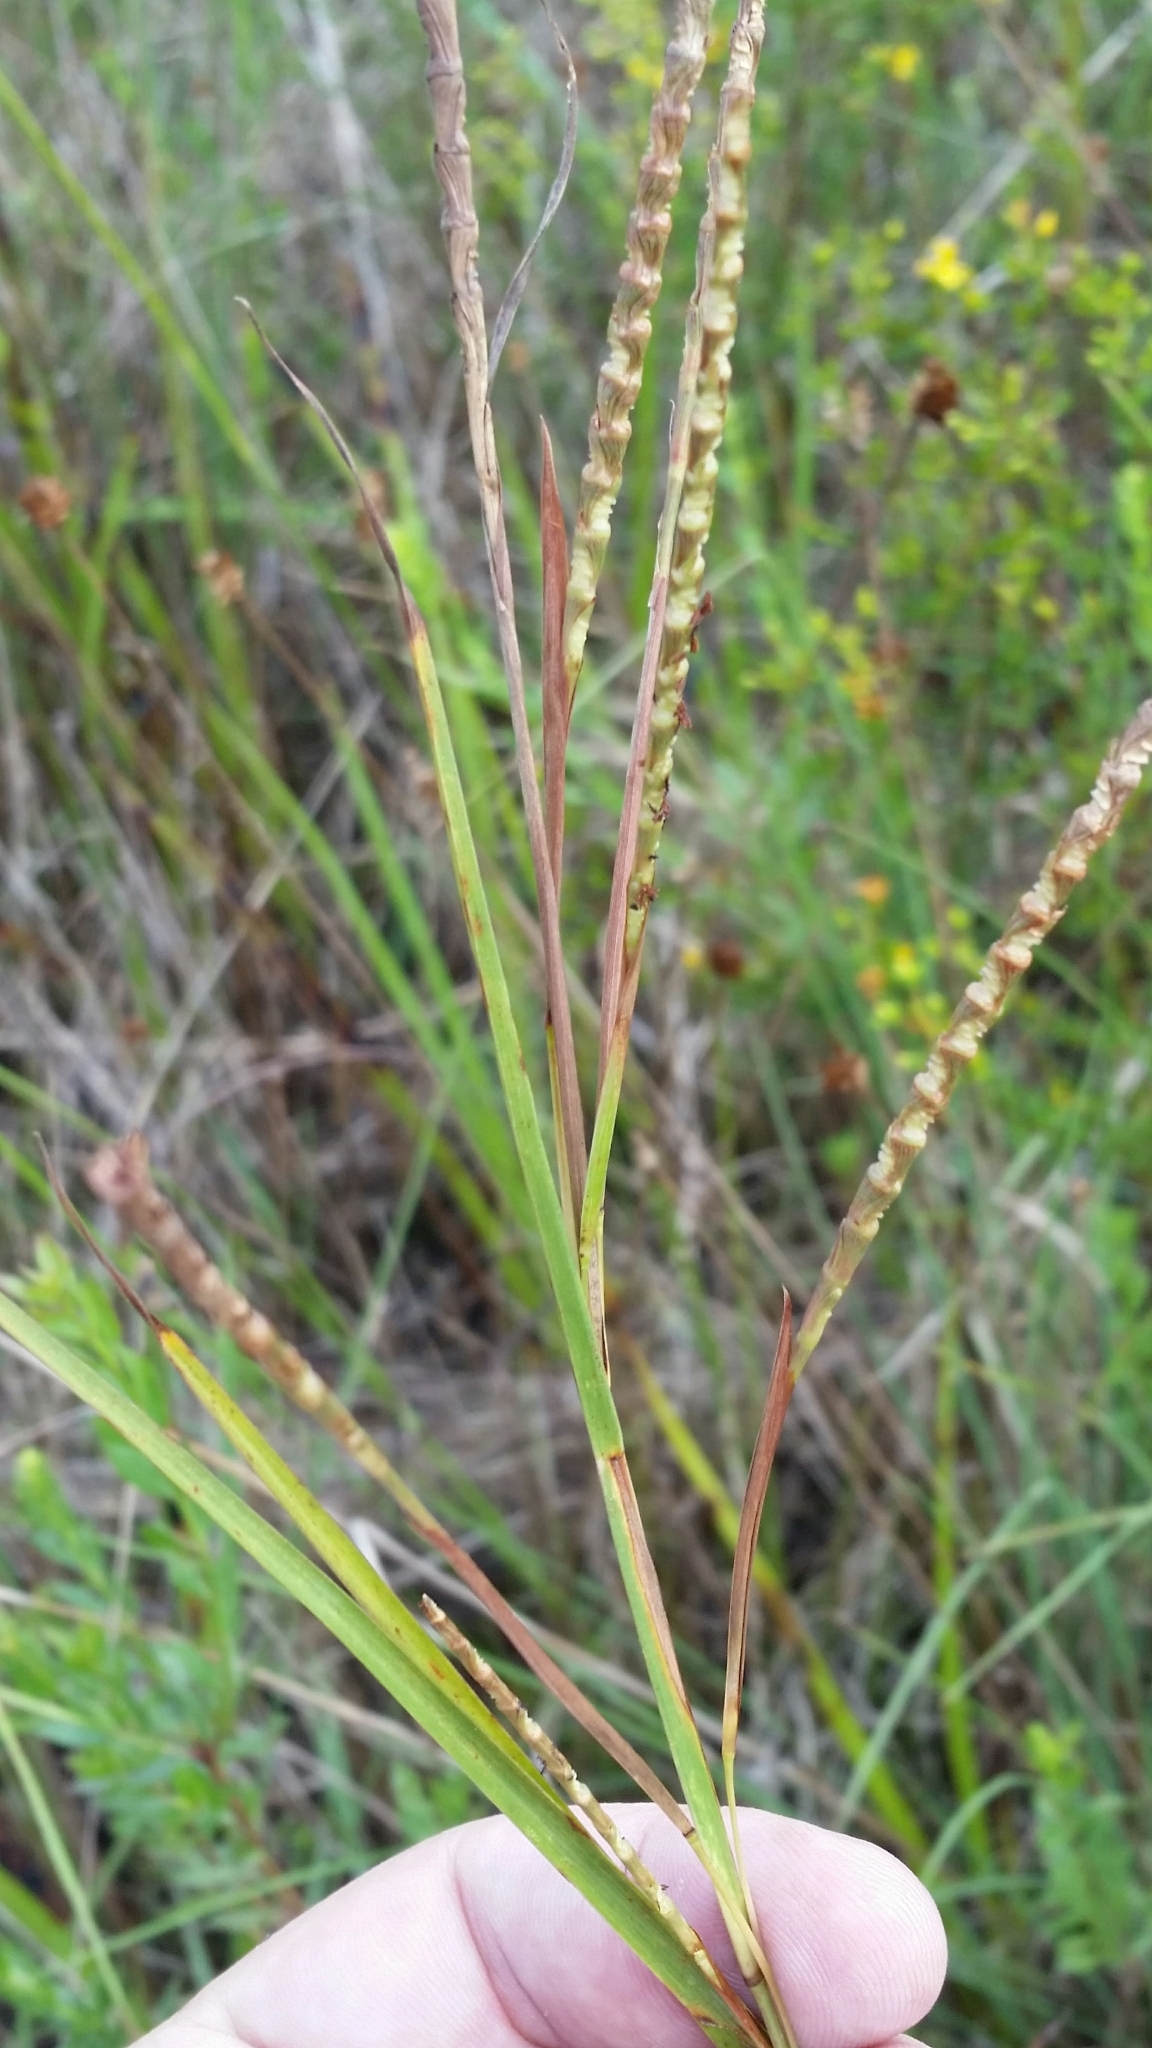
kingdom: Plantae
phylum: Tracheophyta
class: Liliopsida
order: Poales
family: Poaceae
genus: Rottboellia
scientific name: Rottboellia rugosa
